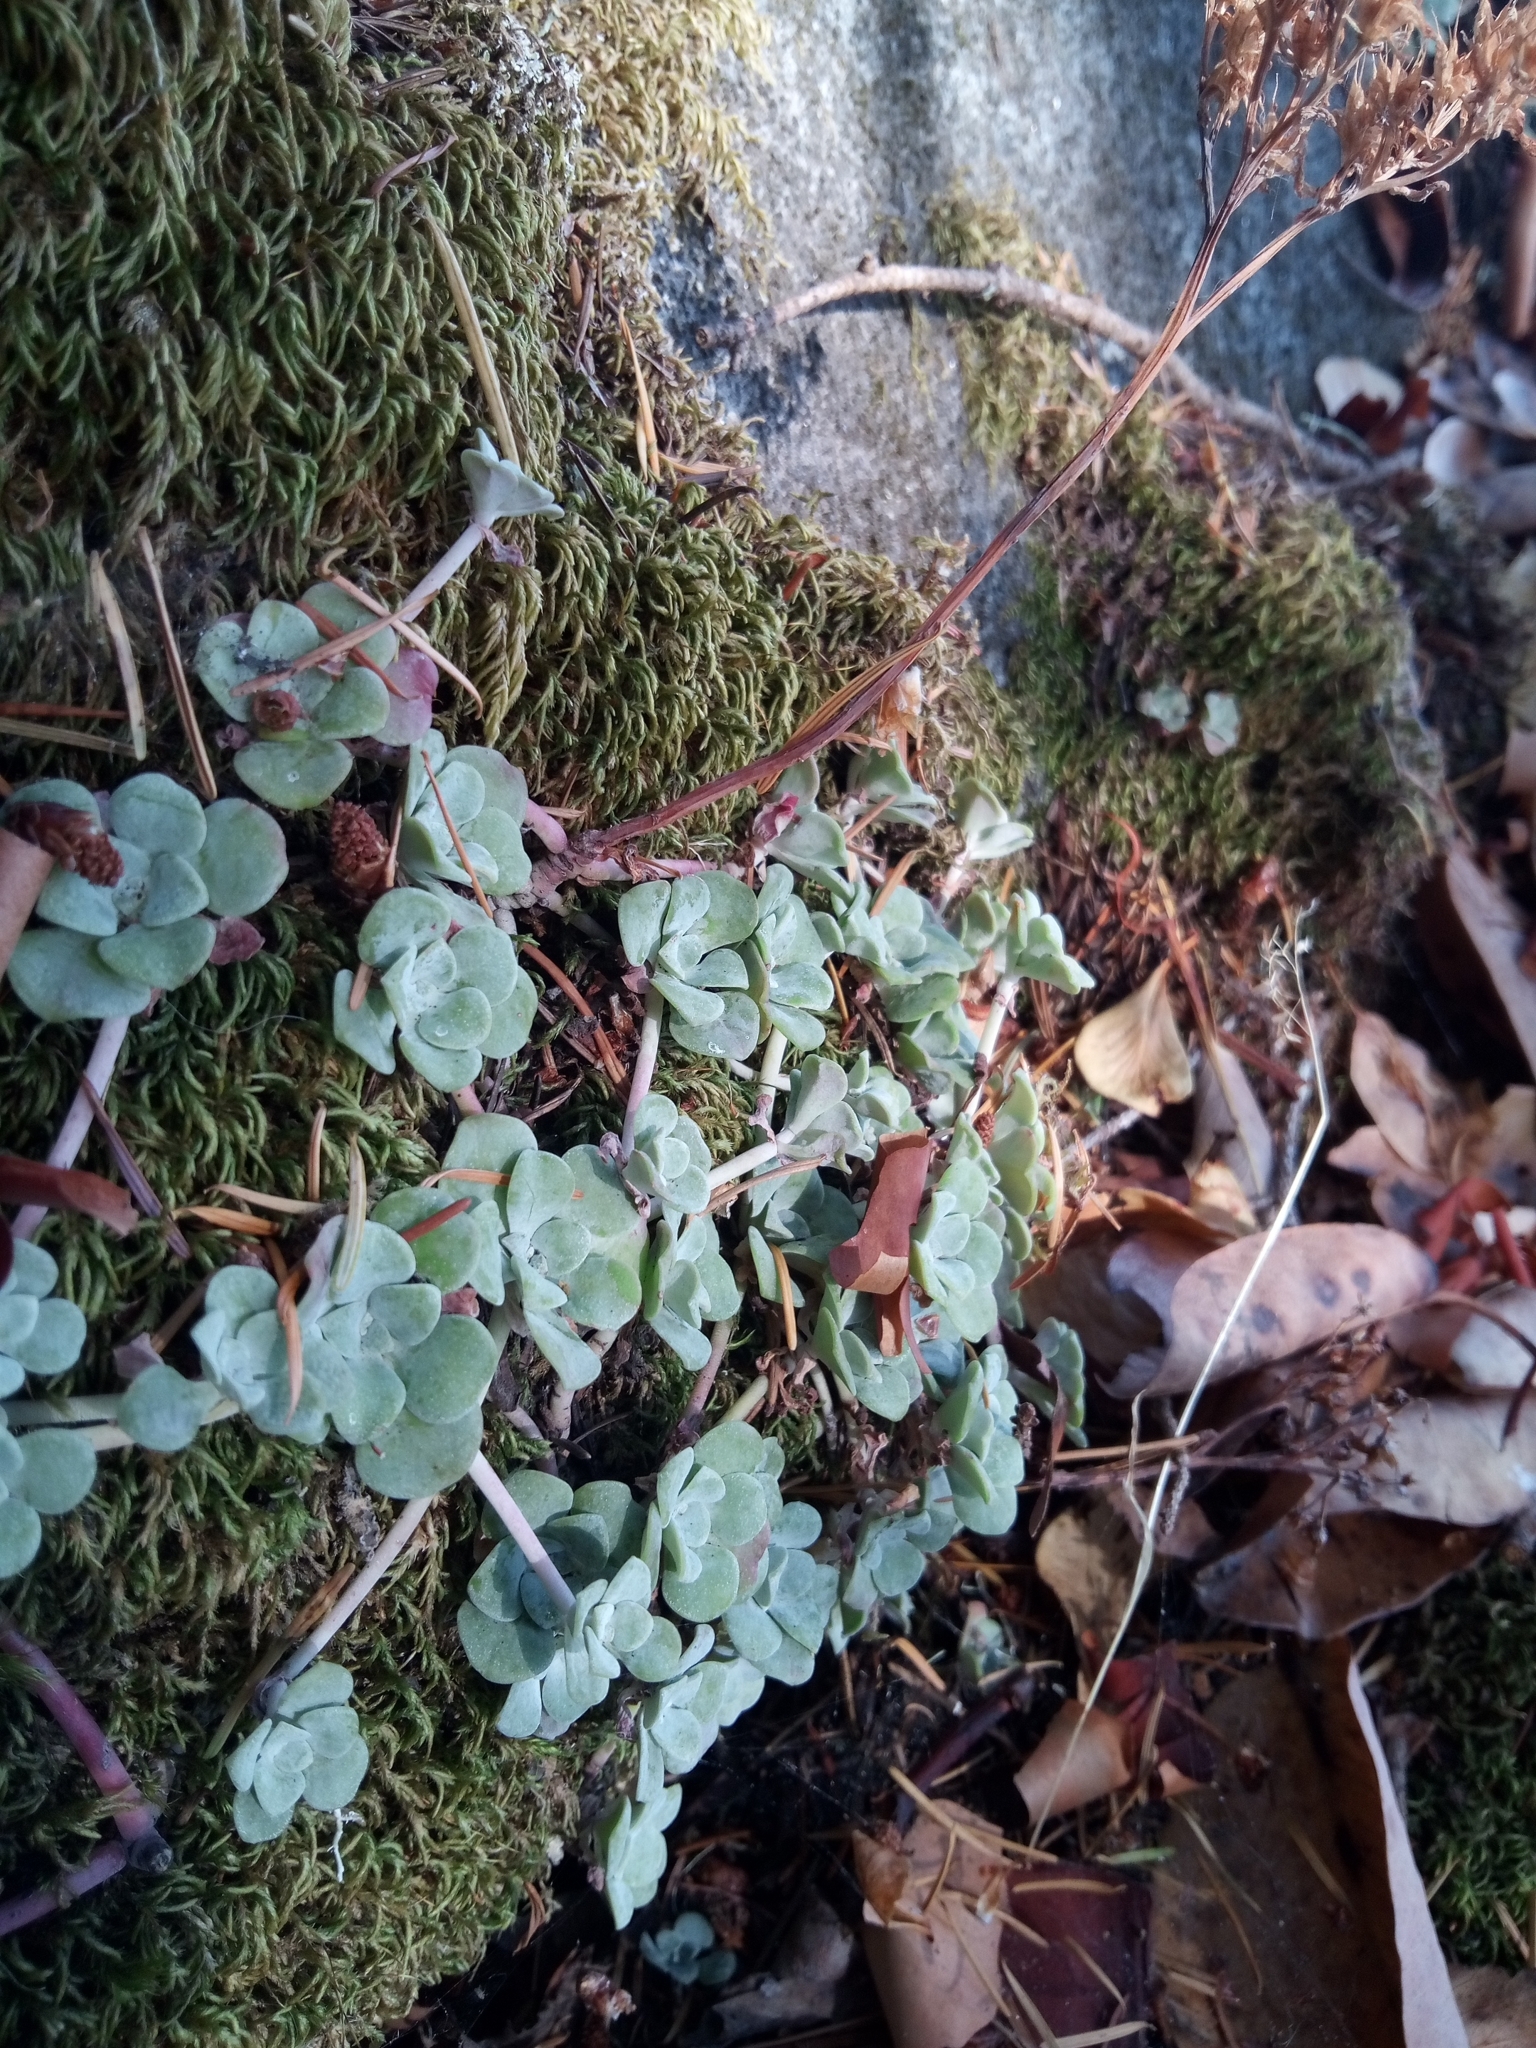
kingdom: Plantae
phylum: Tracheophyta
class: Magnoliopsida
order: Saxifragales
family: Crassulaceae
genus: Sedum
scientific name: Sedum spathulifolium
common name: Colorado stonecrop
